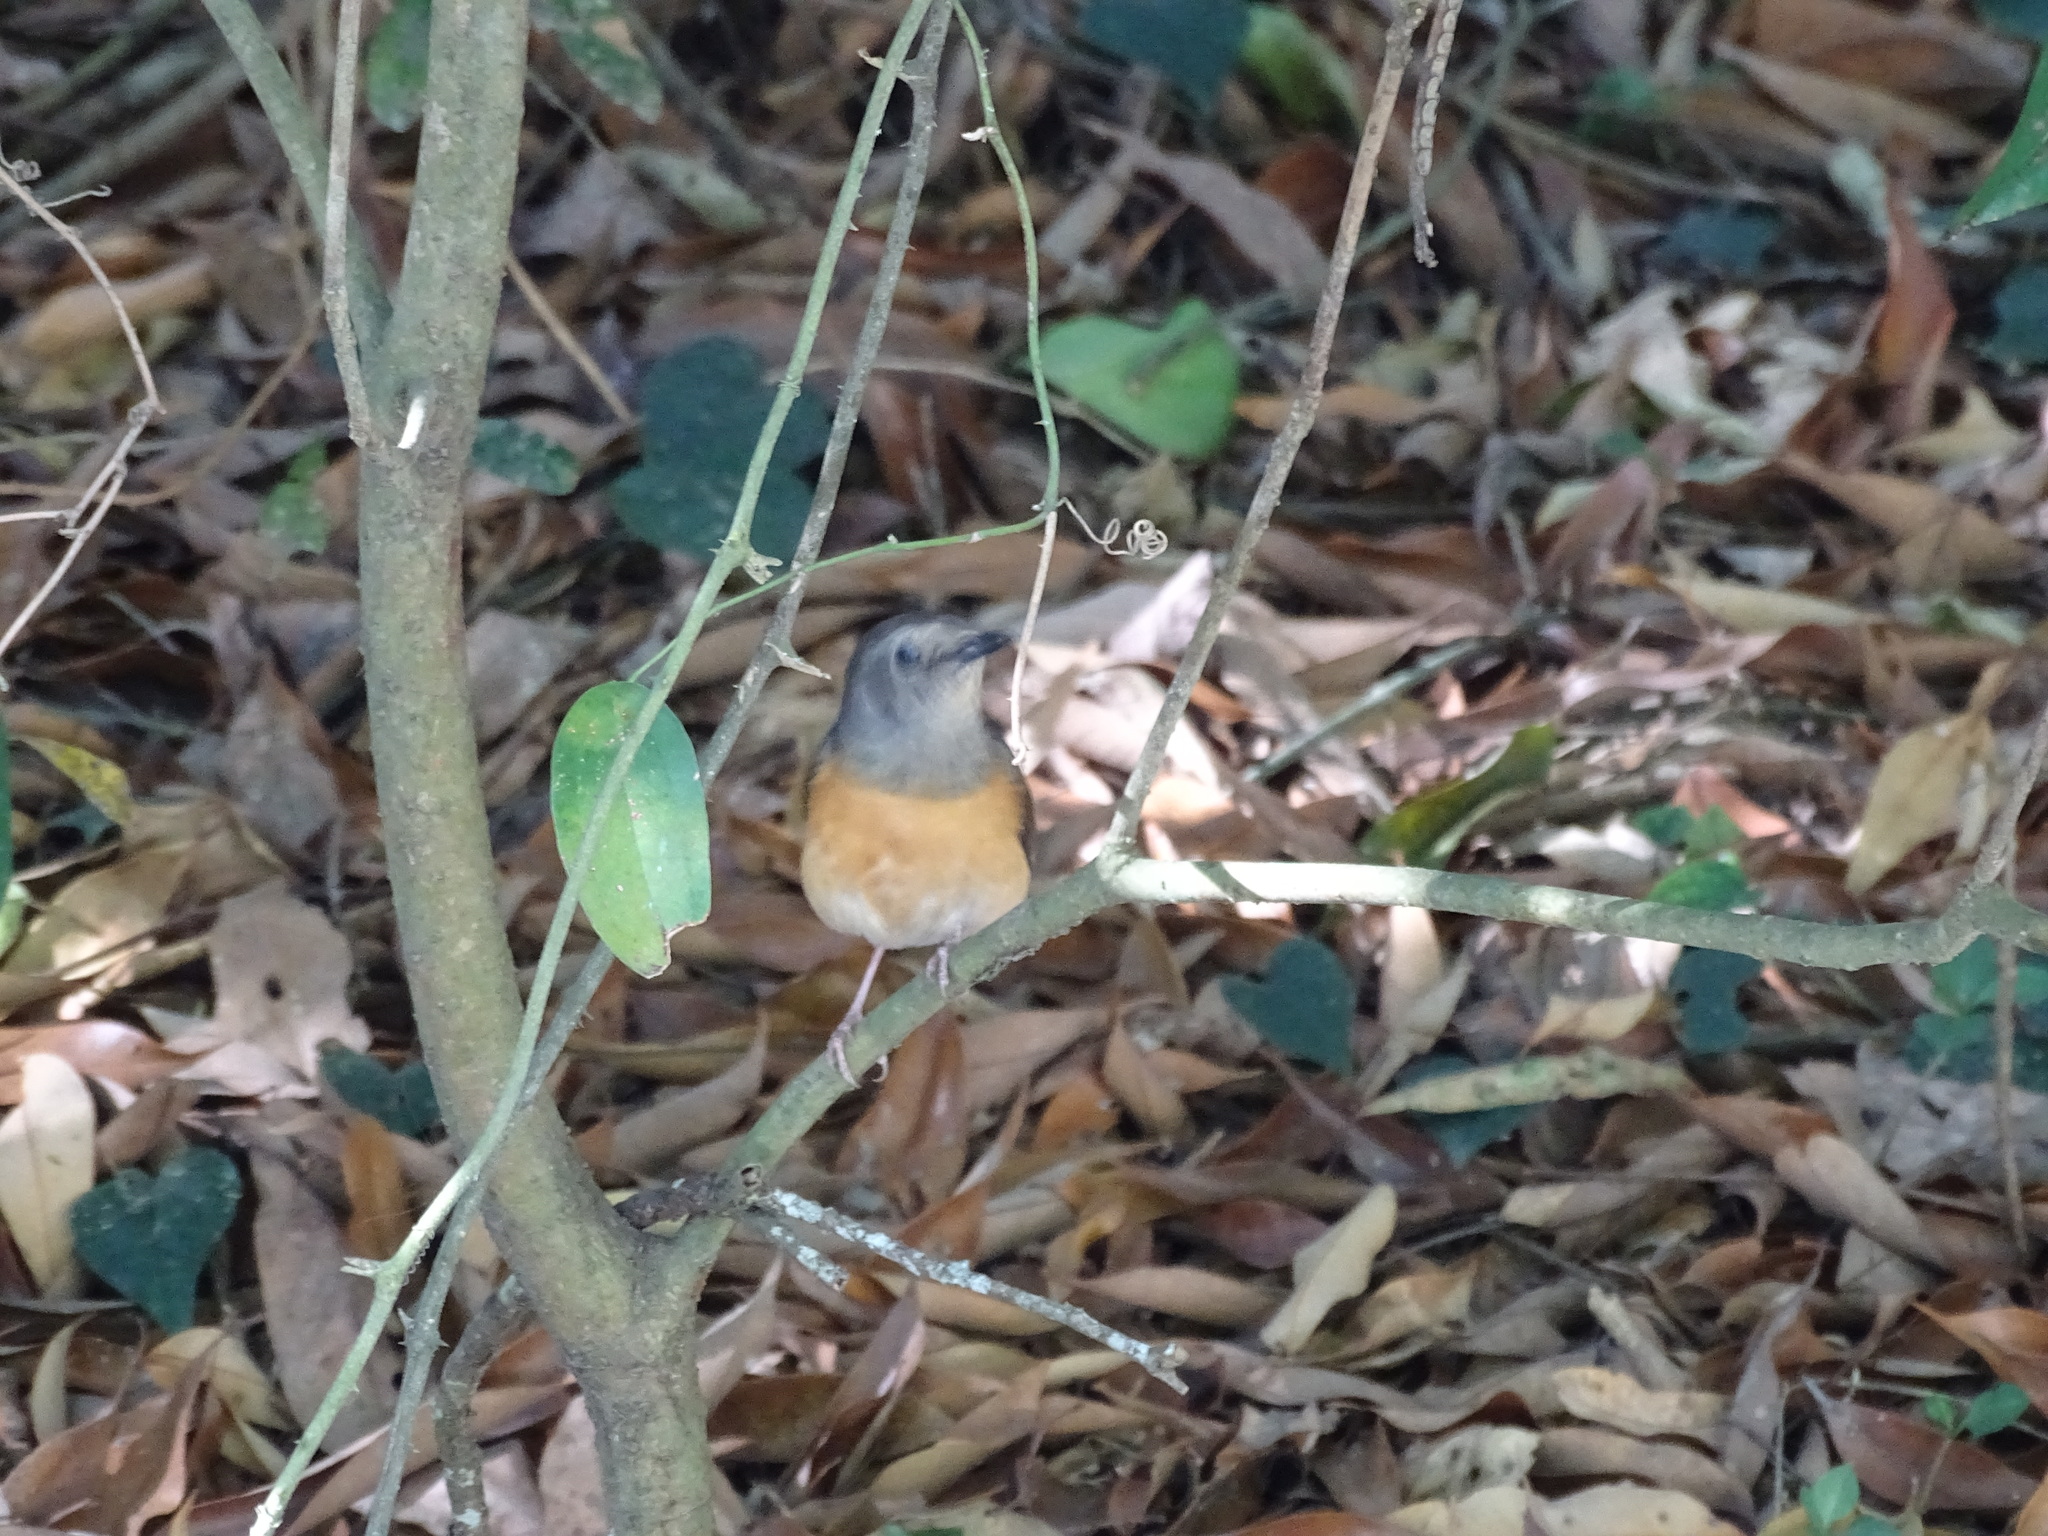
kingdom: Animalia
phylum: Chordata
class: Aves
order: Passeriformes
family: Muscicapidae
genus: Copsychus
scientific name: Copsychus malabaricus
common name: White-rumped shama
